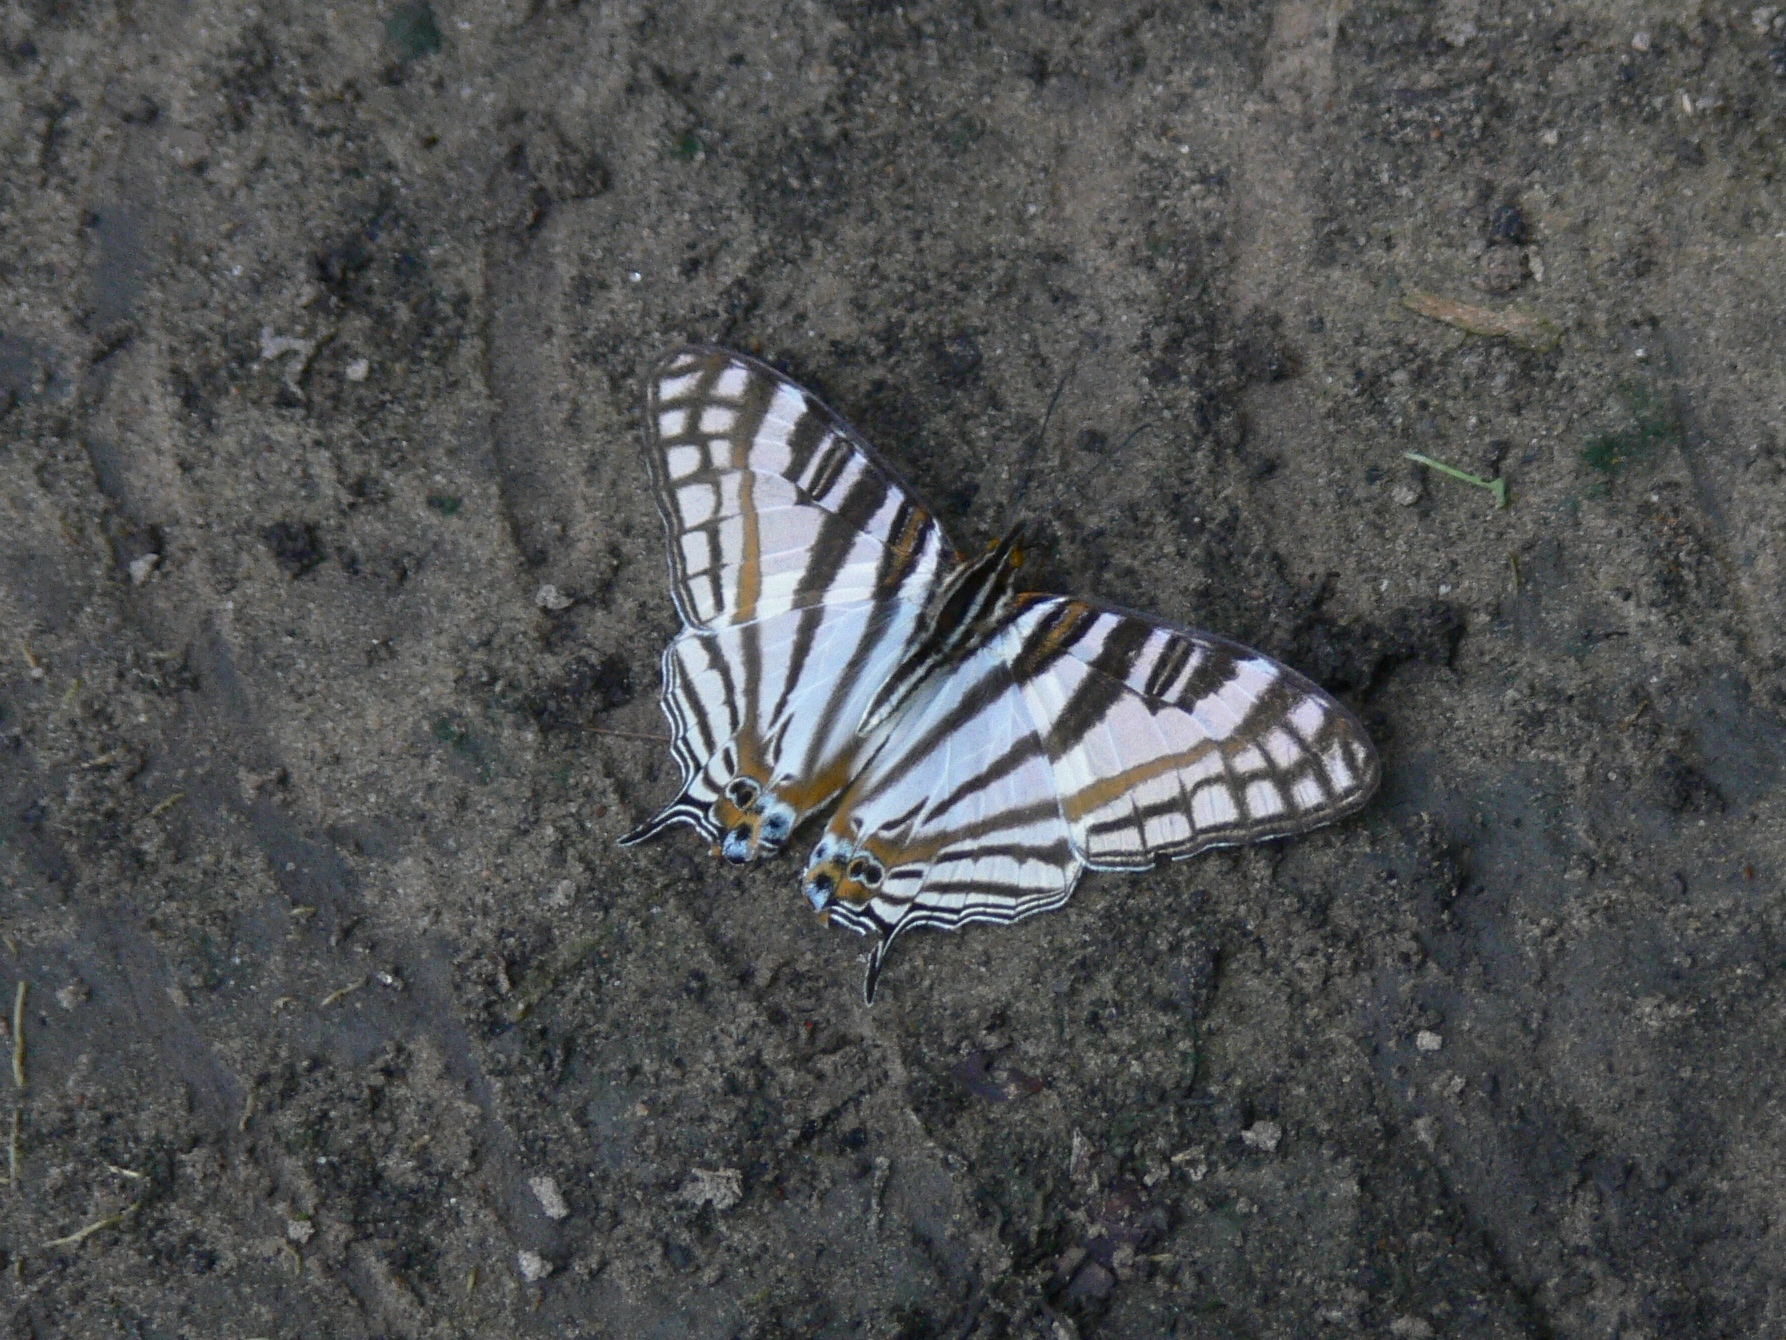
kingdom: Animalia
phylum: Arthropoda
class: Insecta
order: Lepidoptera
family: Nymphalidae
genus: Marpesia
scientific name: Marpesia camillus
